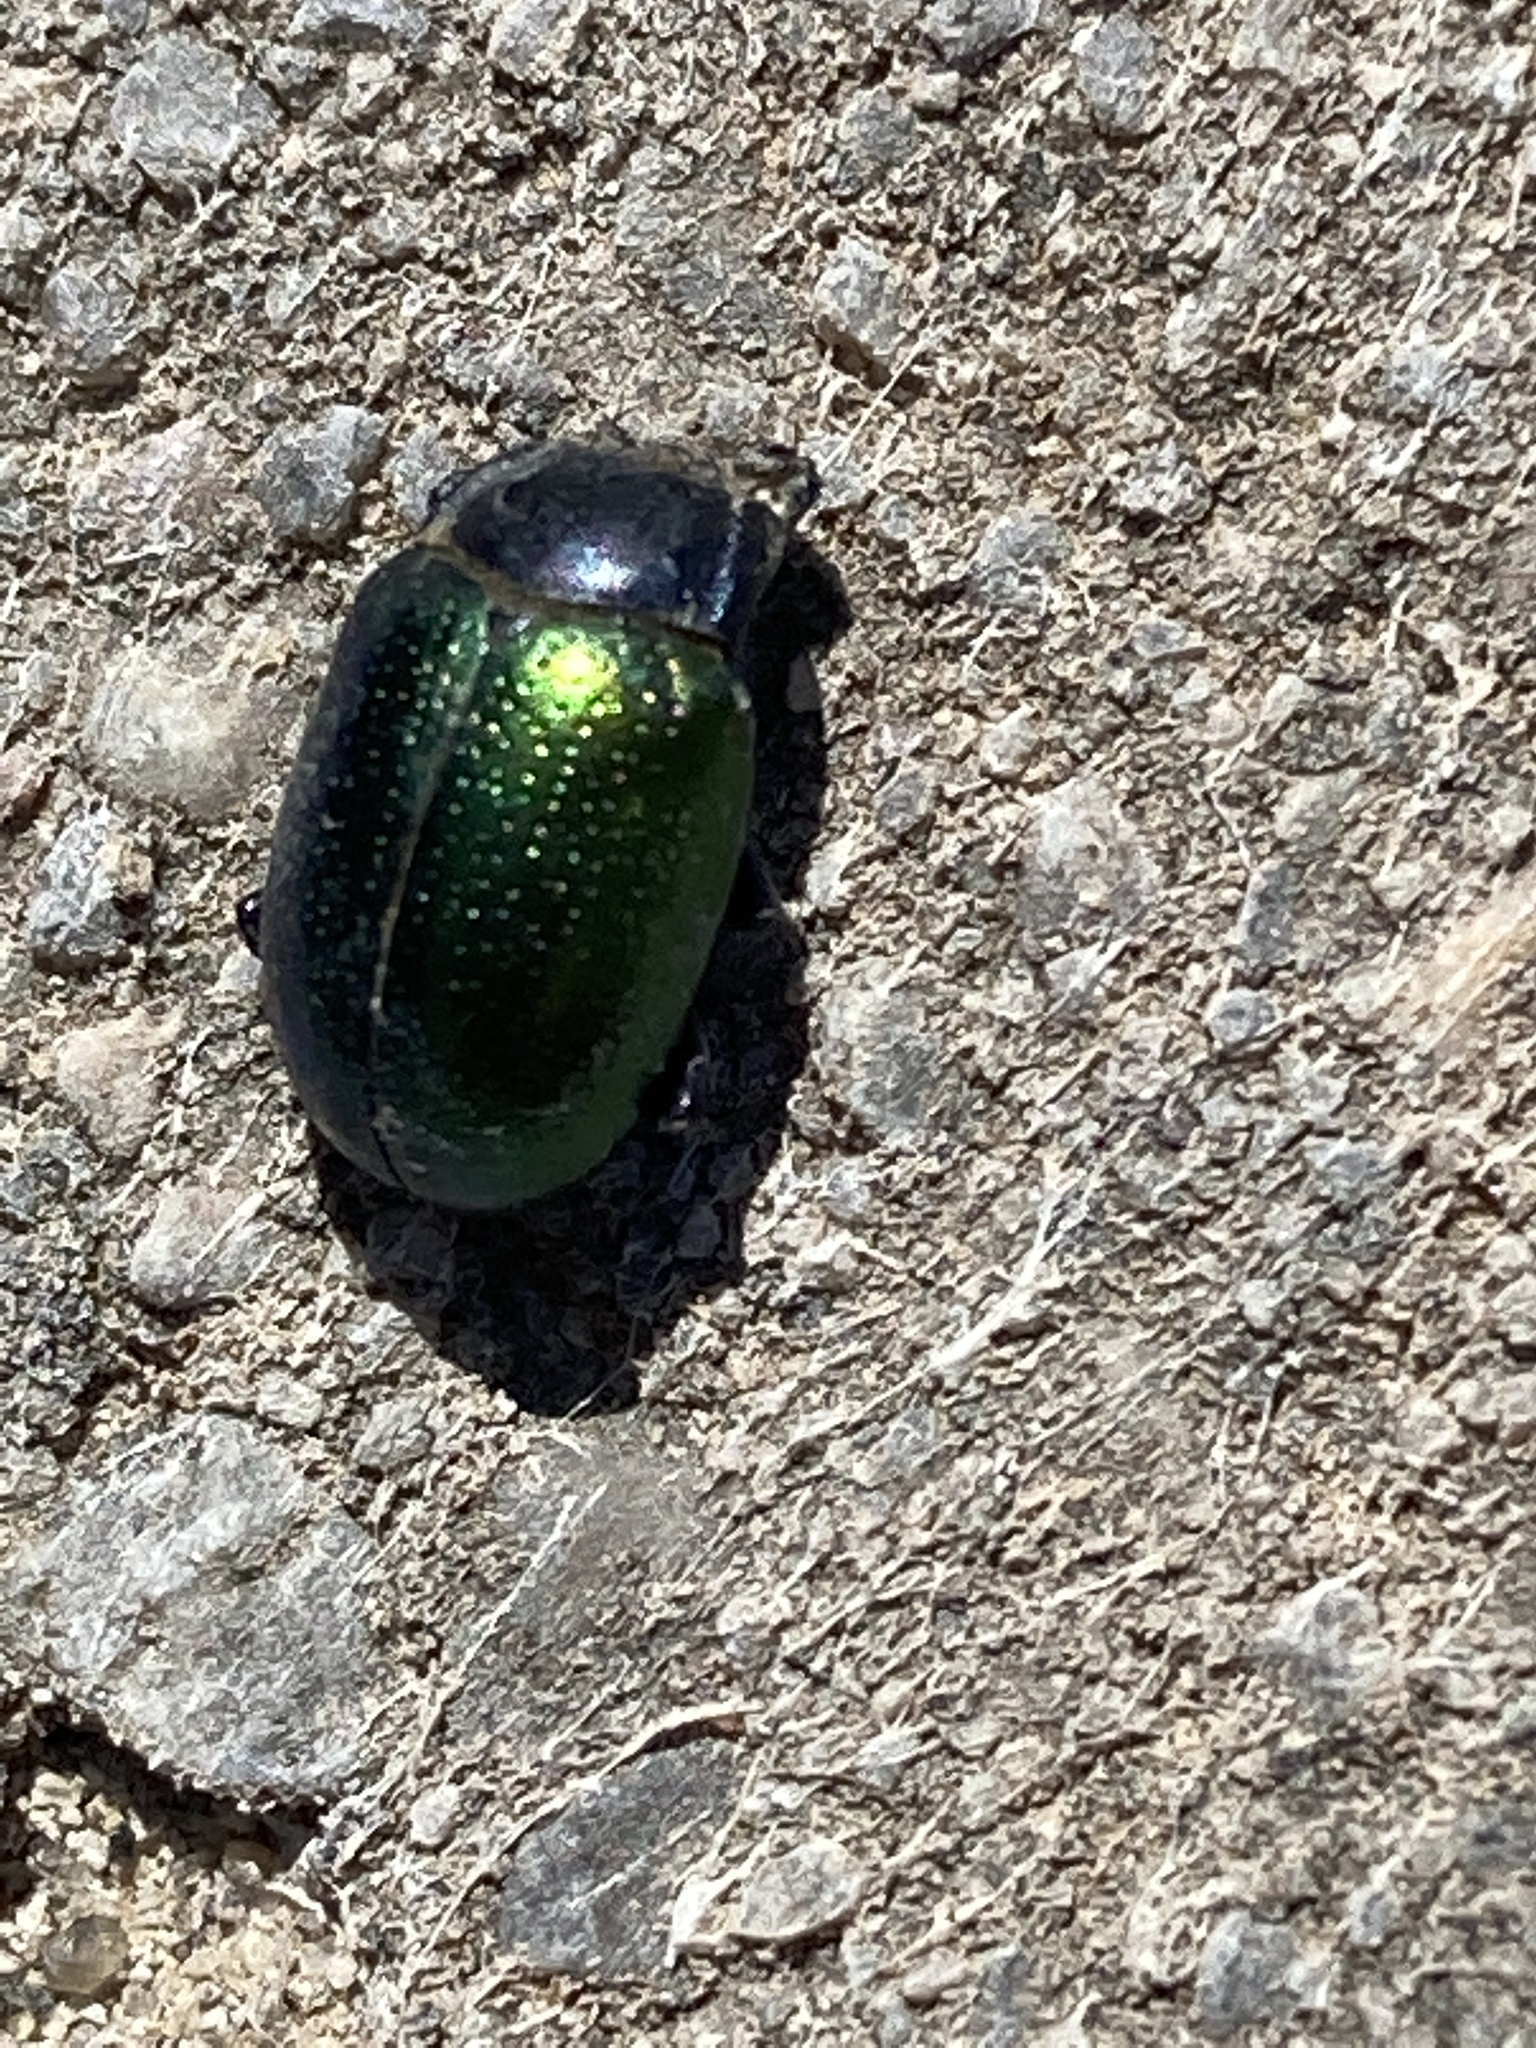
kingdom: Animalia
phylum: Arthropoda
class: Insecta
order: Coleoptera
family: Chrysomelidae
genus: Chrysolina
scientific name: Chrysolina auripennis
